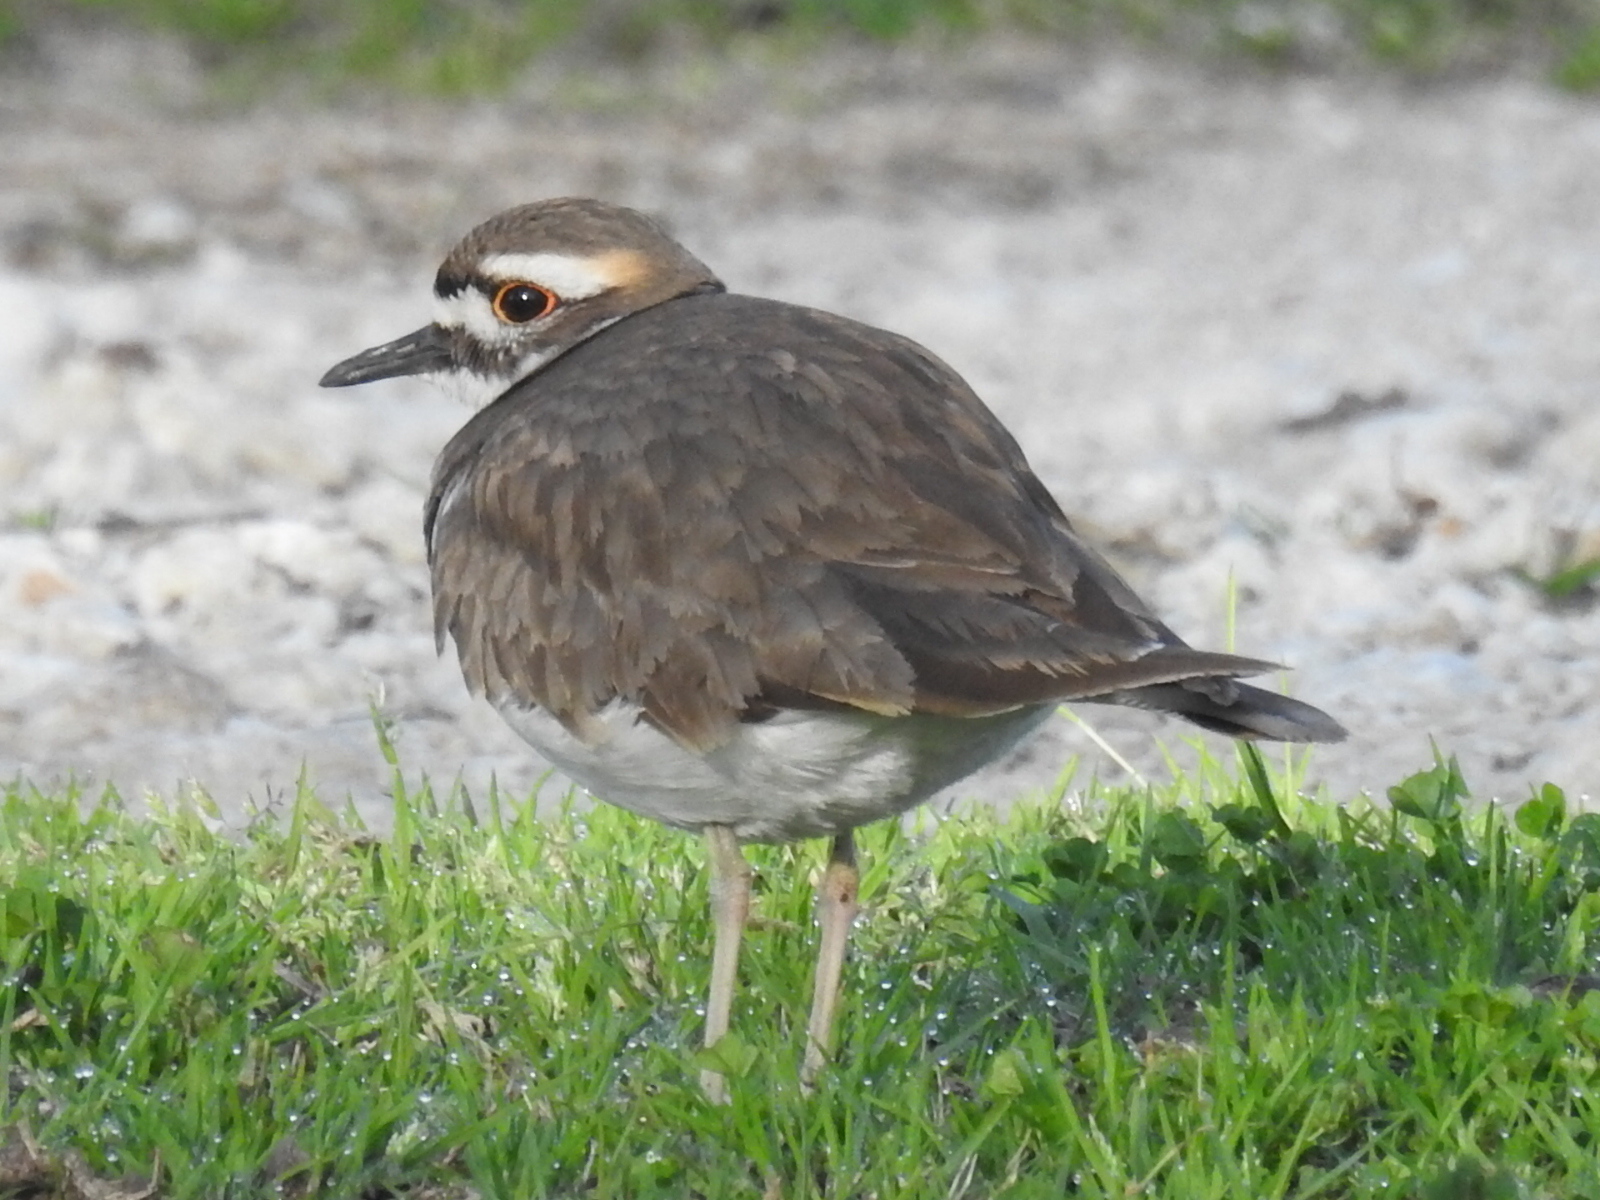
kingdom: Animalia
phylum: Chordata
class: Aves
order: Charadriiformes
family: Charadriidae
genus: Charadrius
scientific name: Charadrius vociferus
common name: Killdeer
